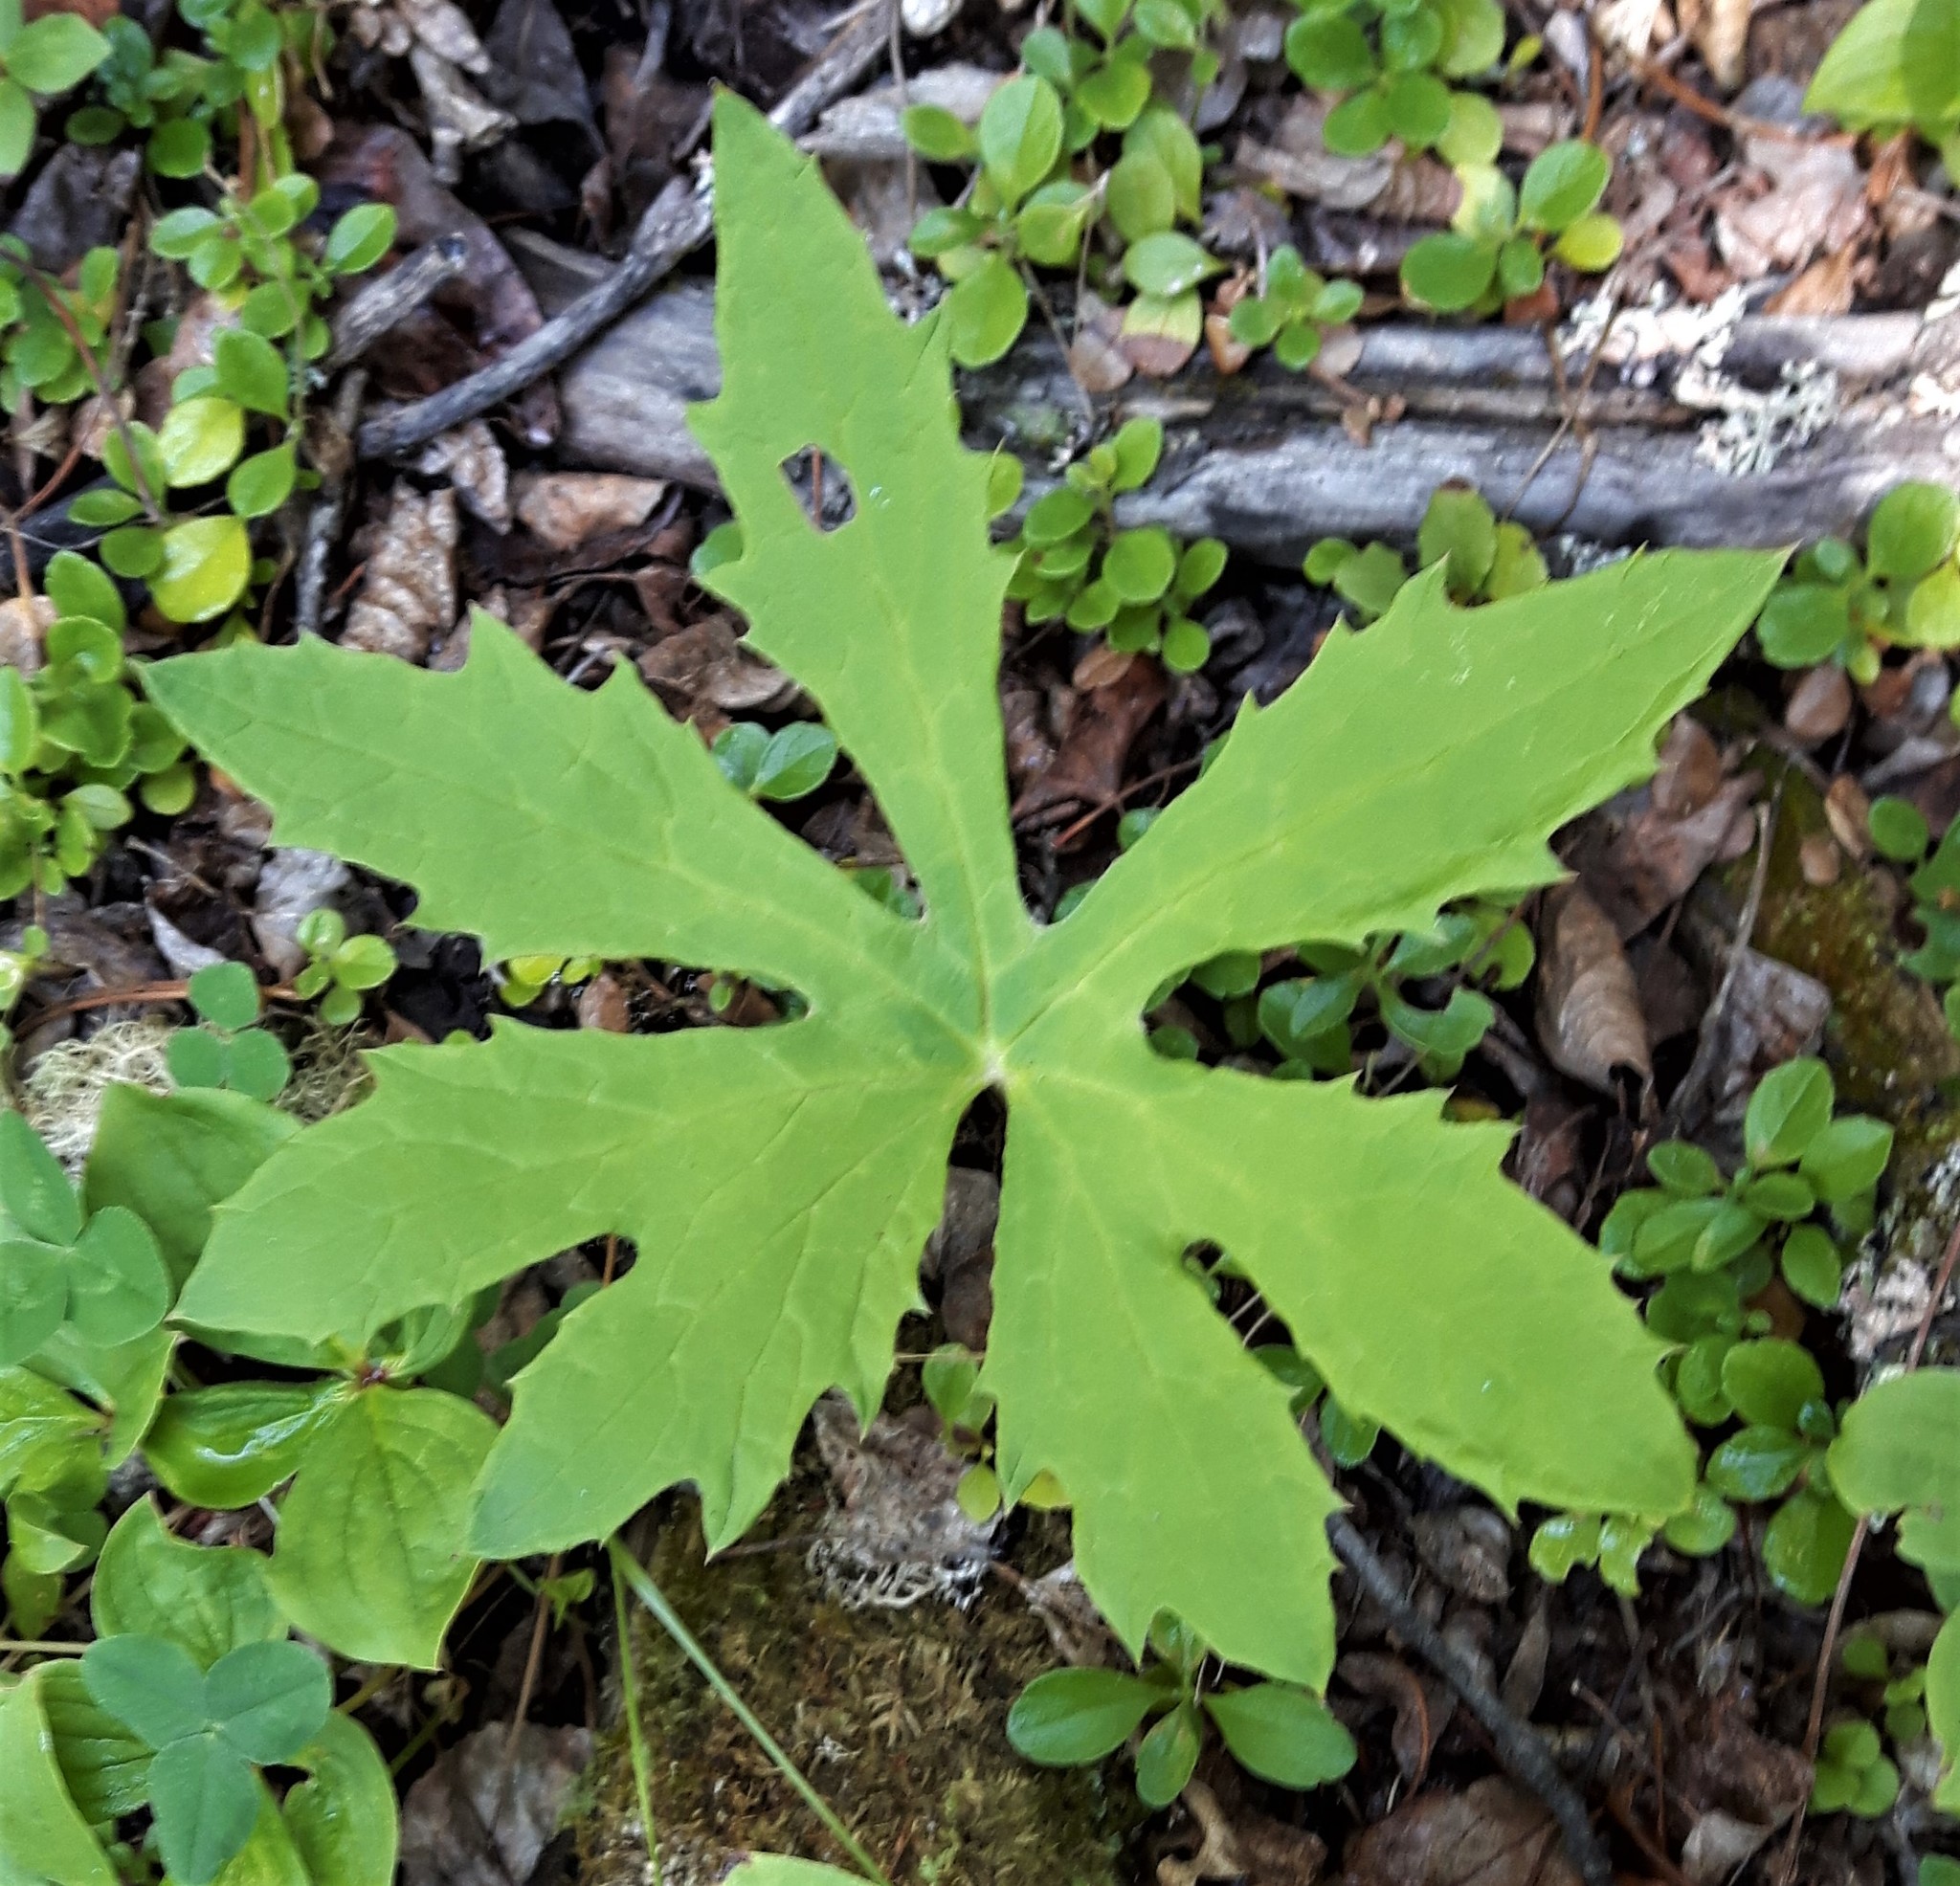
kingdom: Plantae
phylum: Tracheophyta
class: Magnoliopsida
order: Asterales
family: Asteraceae
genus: Petasites
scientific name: Petasites frigidus
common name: Arctic butterbur
